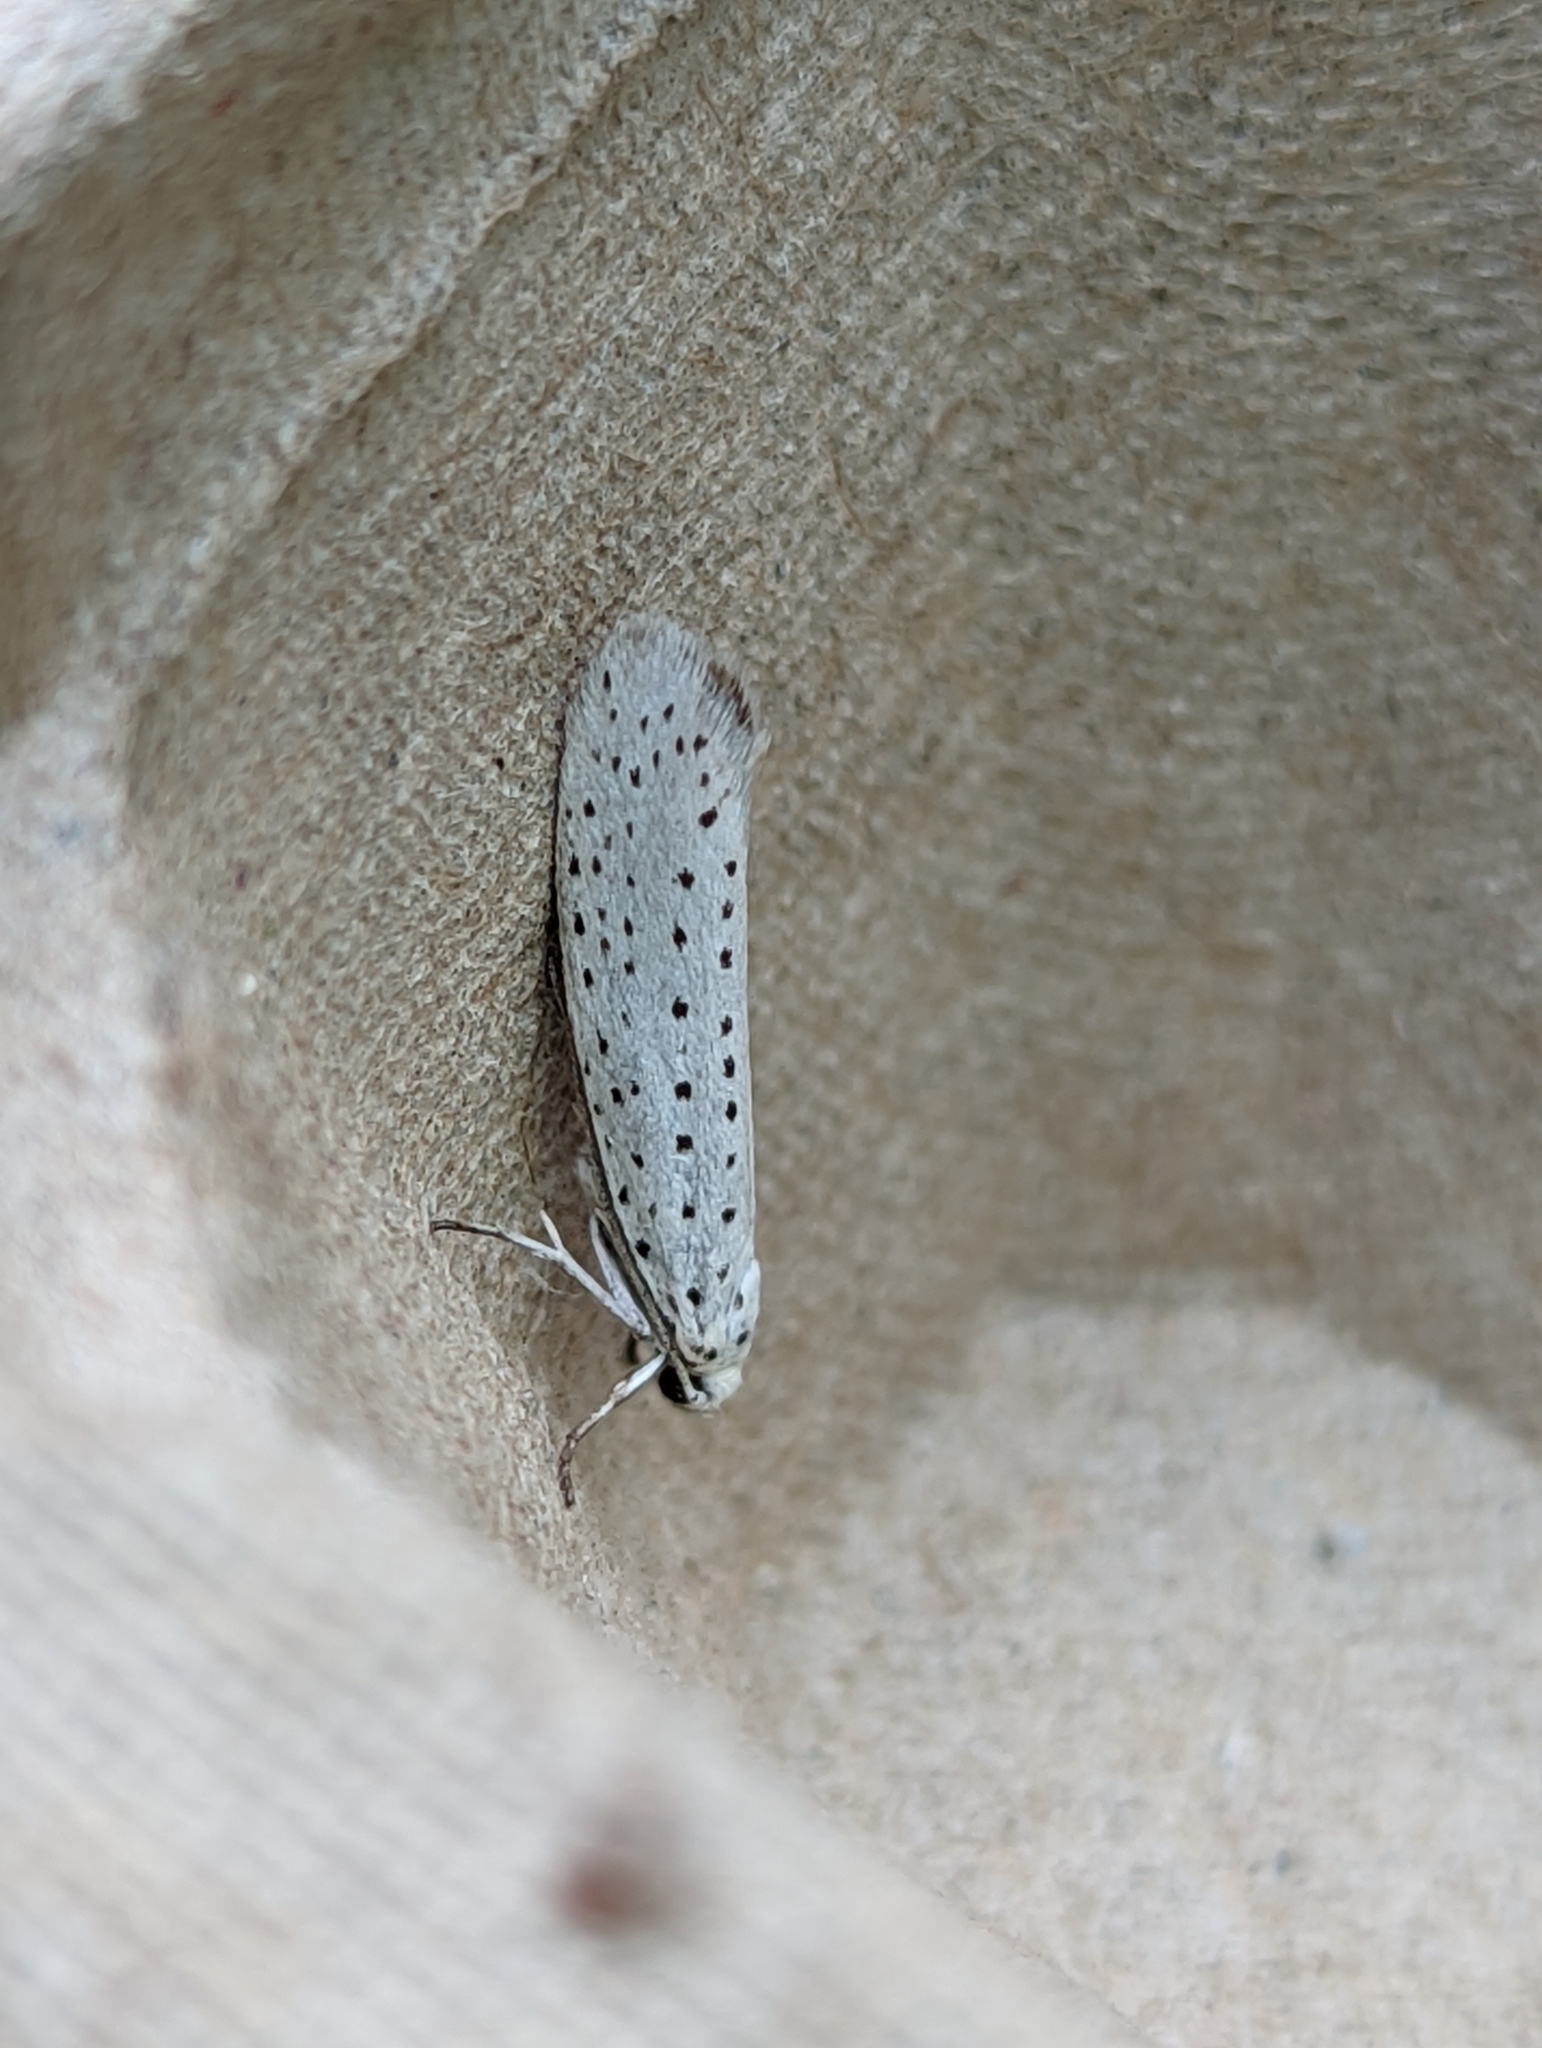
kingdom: Animalia
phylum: Arthropoda
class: Insecta
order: Lepidoptera
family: Yponomeutidae
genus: Yponomeuta
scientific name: Yponomeuta evonymella
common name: Bird-cherry ermine
